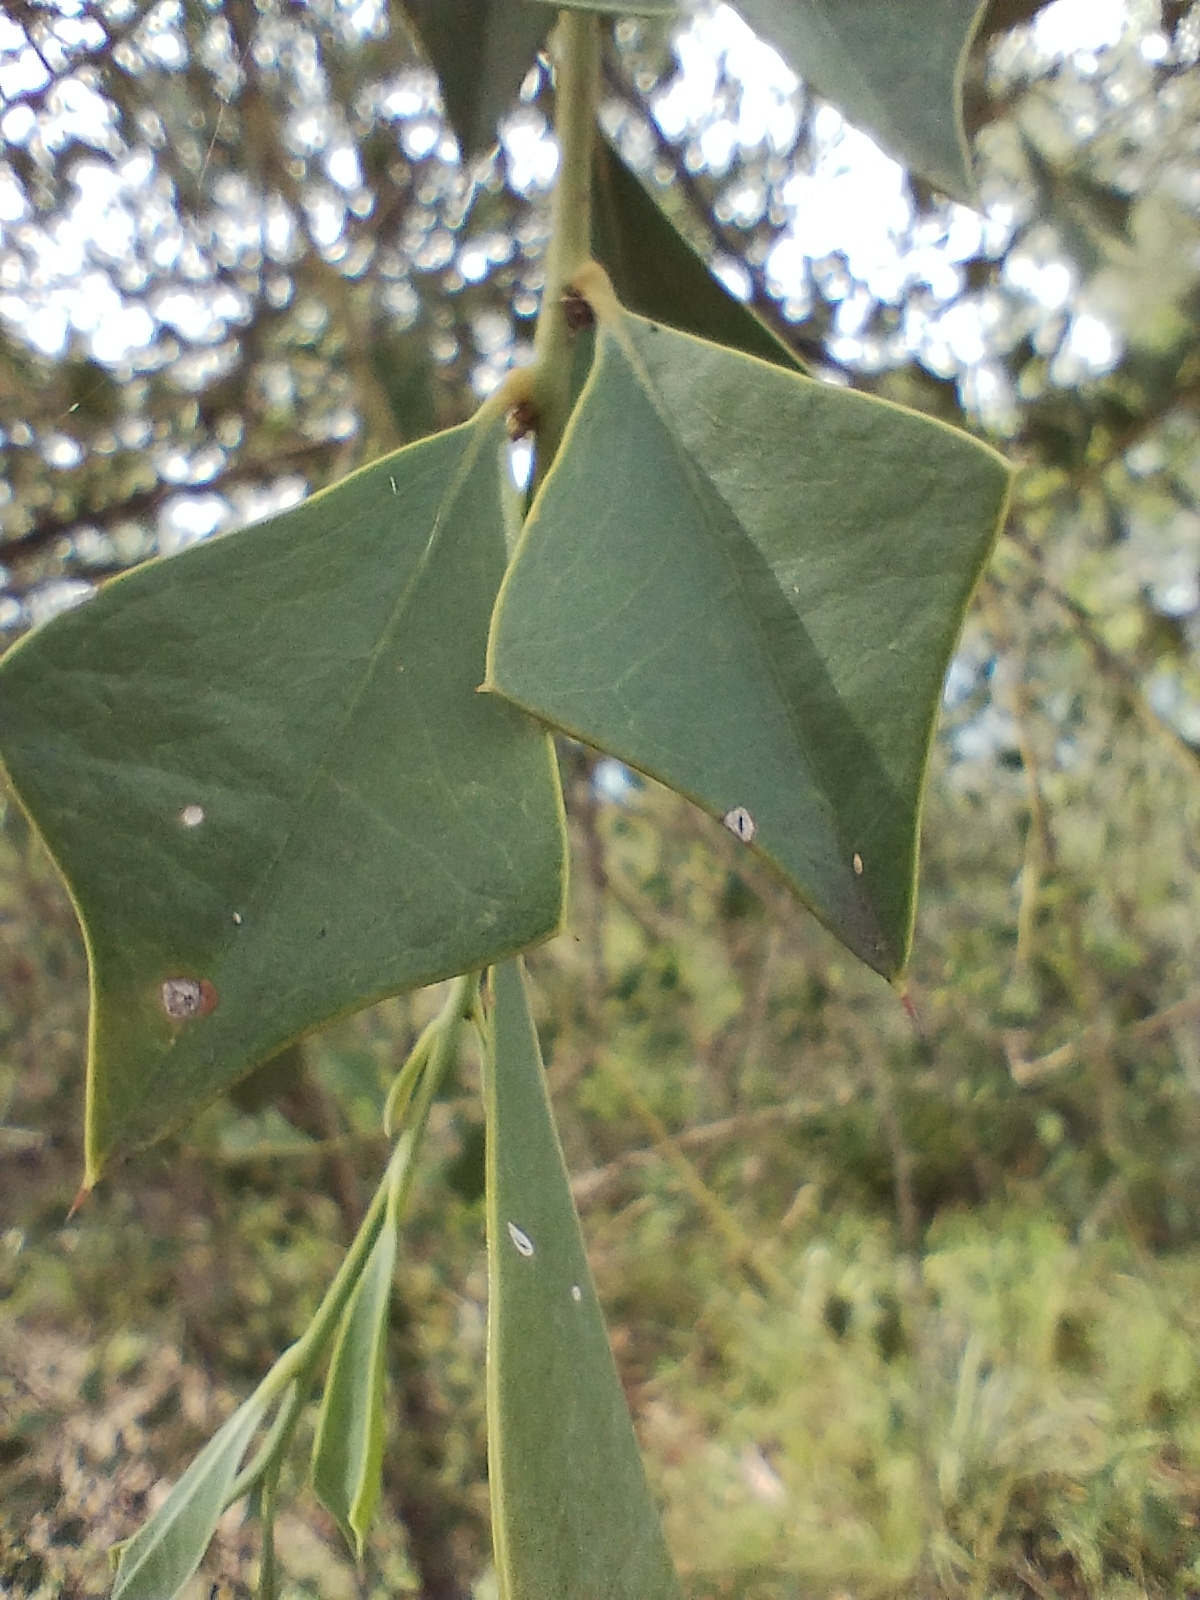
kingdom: Plantae
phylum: Tracheophyta
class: Magnoliopsida
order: Santalales
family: Cervantesiaceae
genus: Jodina
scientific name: Jodina rhombifolia
